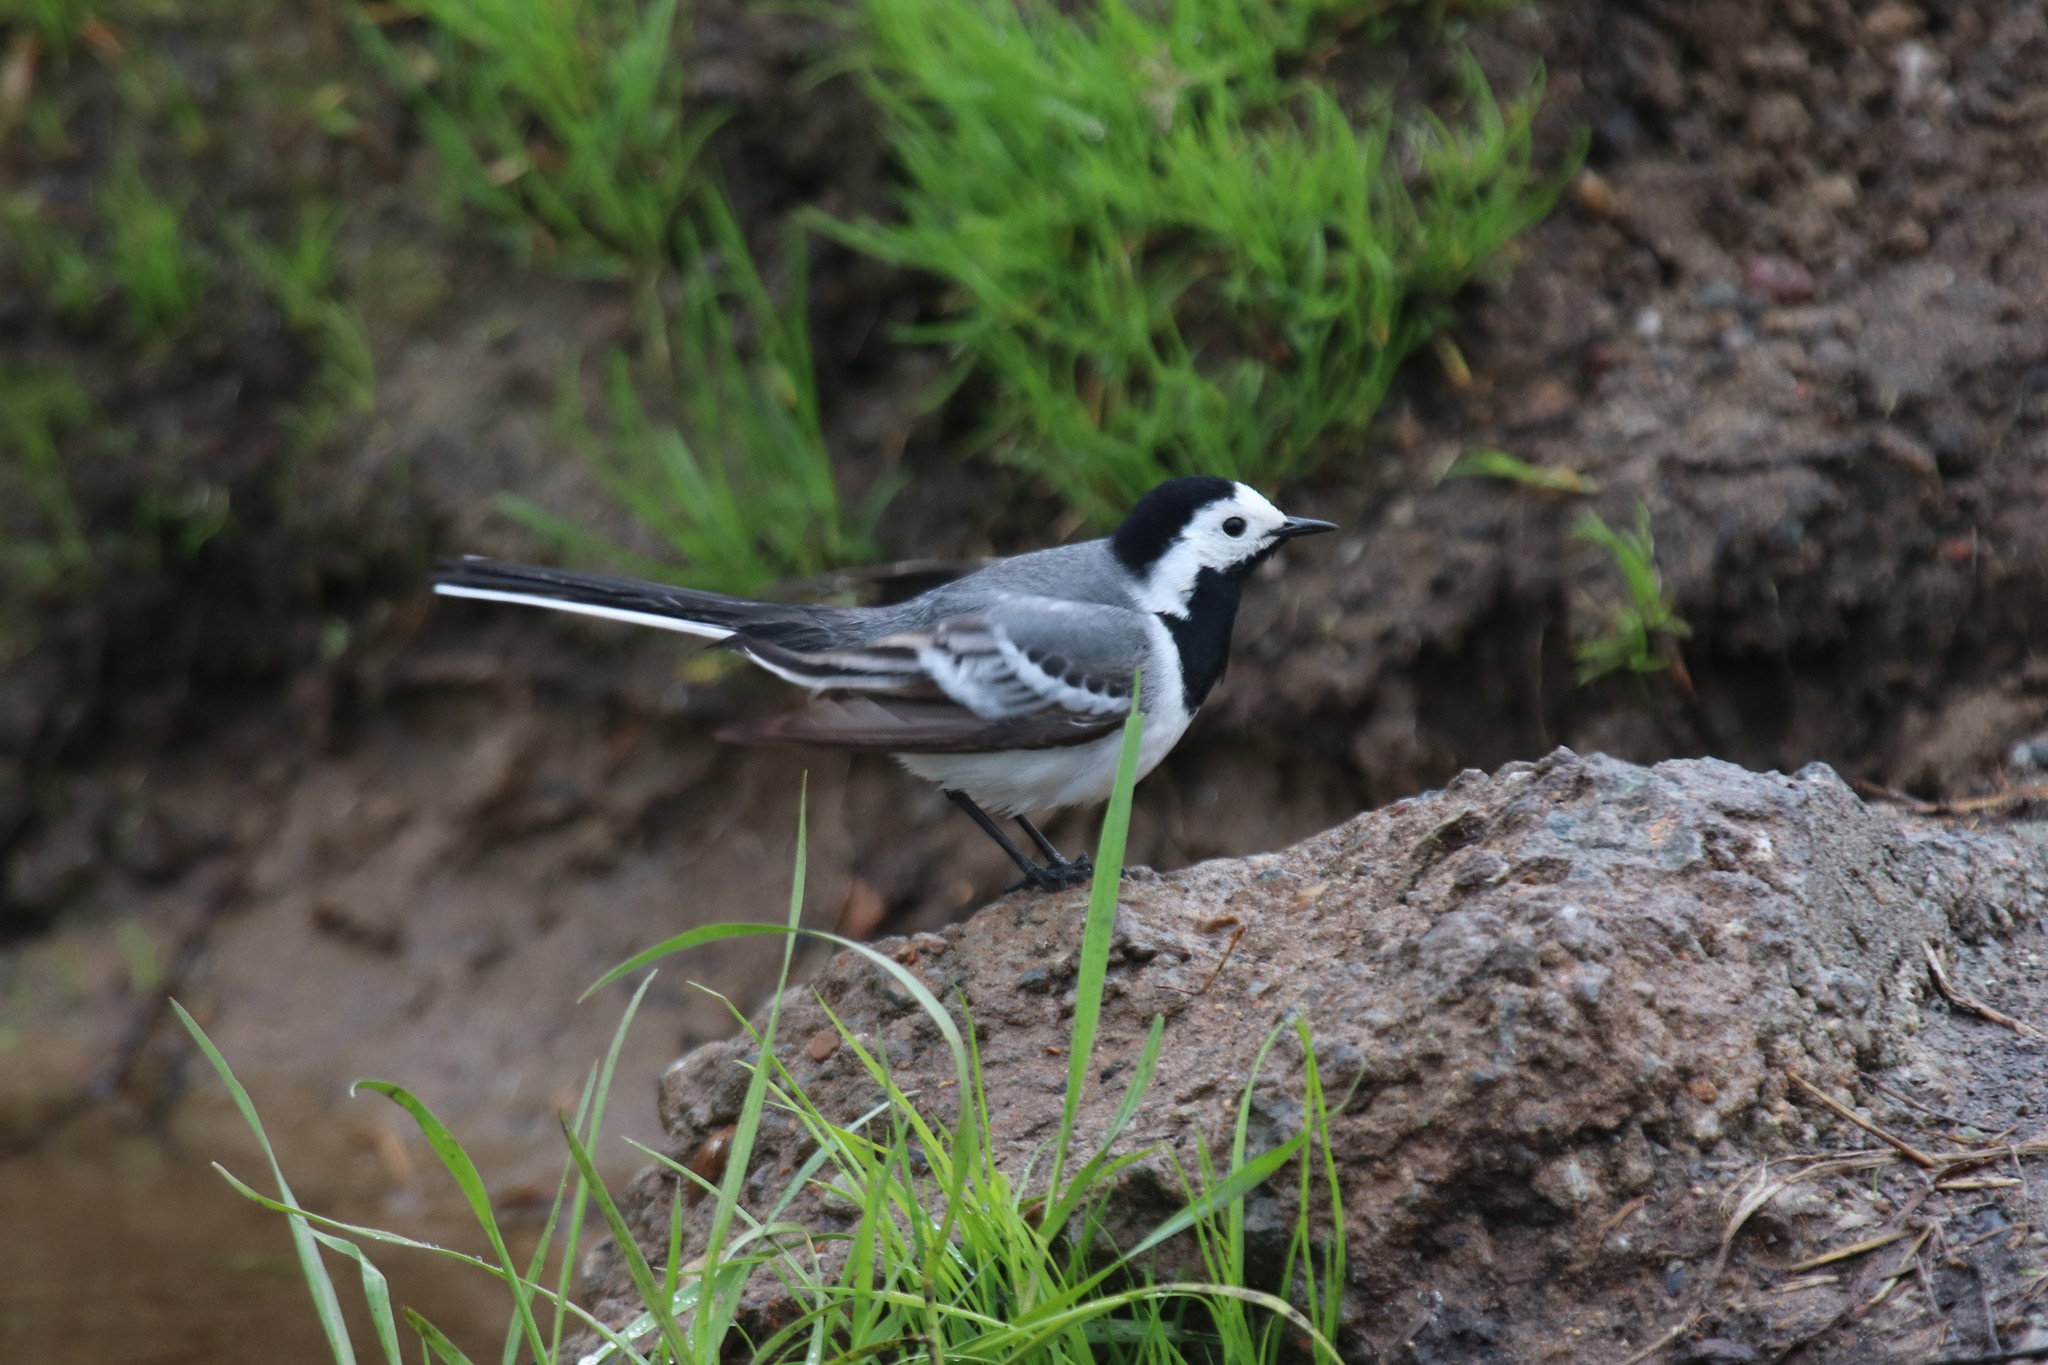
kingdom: Animalia
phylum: Chordata
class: Aves
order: Passeriformes
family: Motacillidae
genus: Motacilla
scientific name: Motacilla alba
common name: White wagtail
